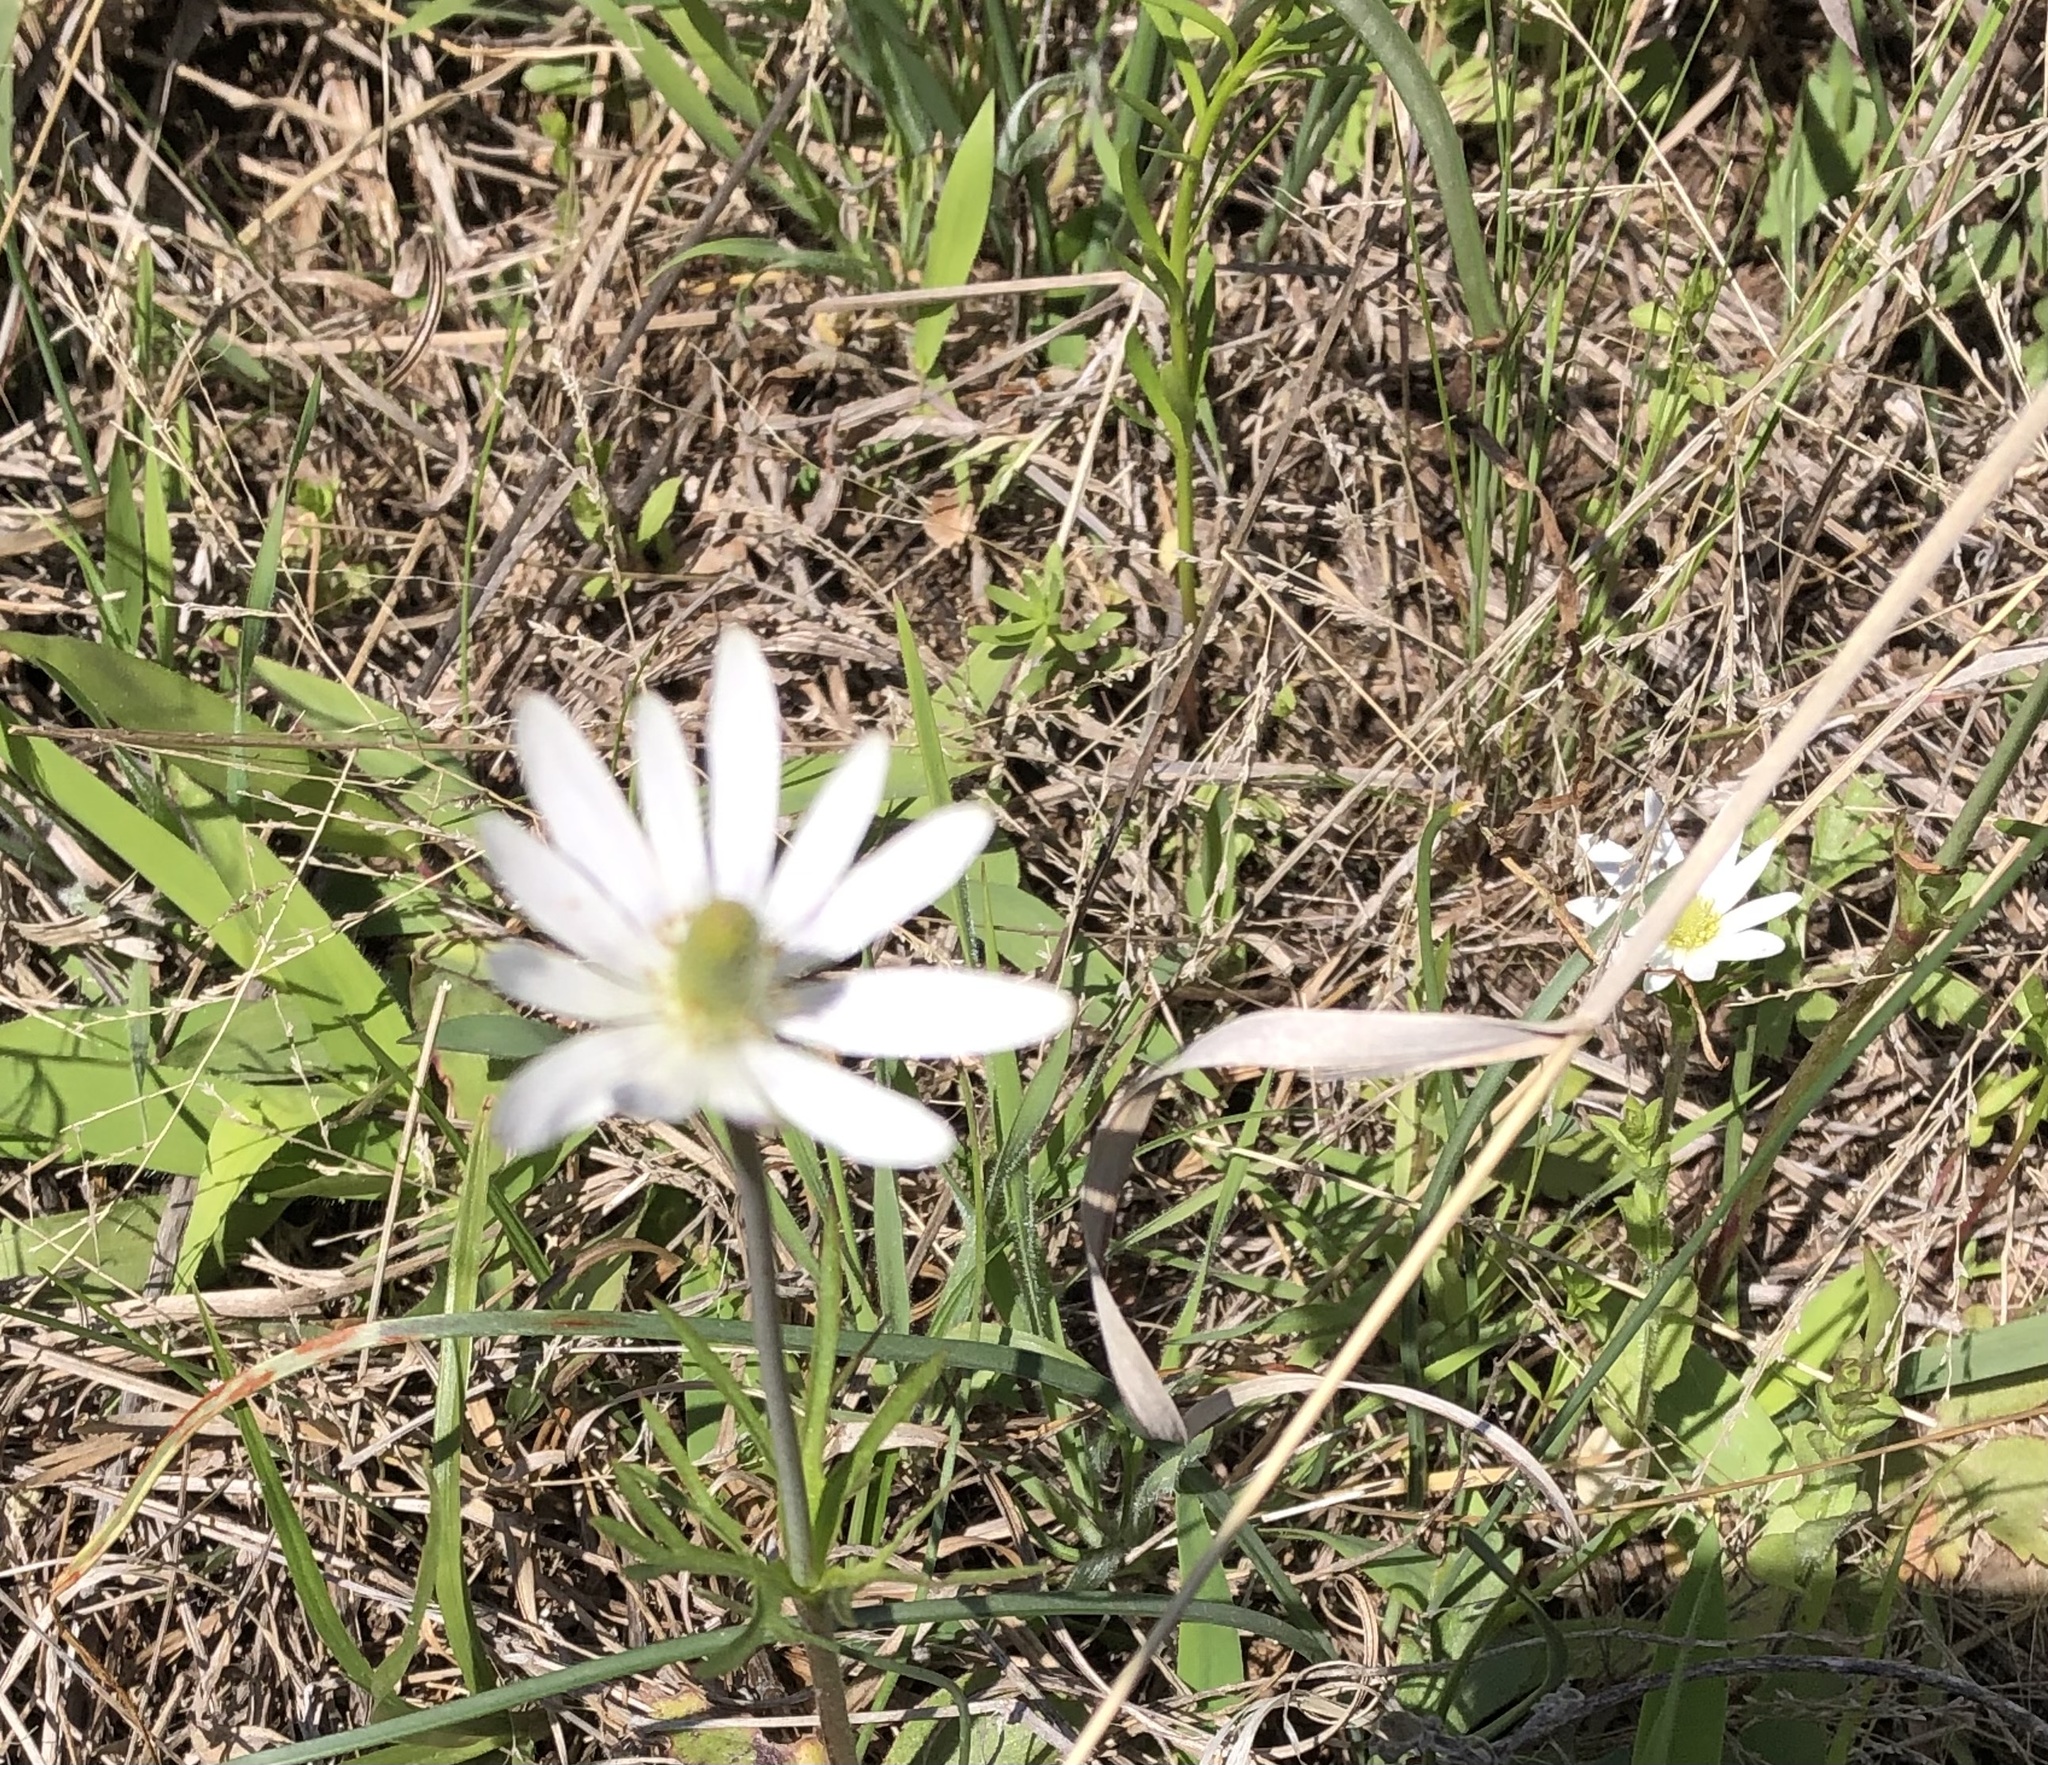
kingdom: Plantae
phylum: Tracheophyta
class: Magnoliopsida
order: Ranunculales
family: Ranunculaceae
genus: Anemone
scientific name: Anemone berlandieri
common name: Ten-petal anemone
